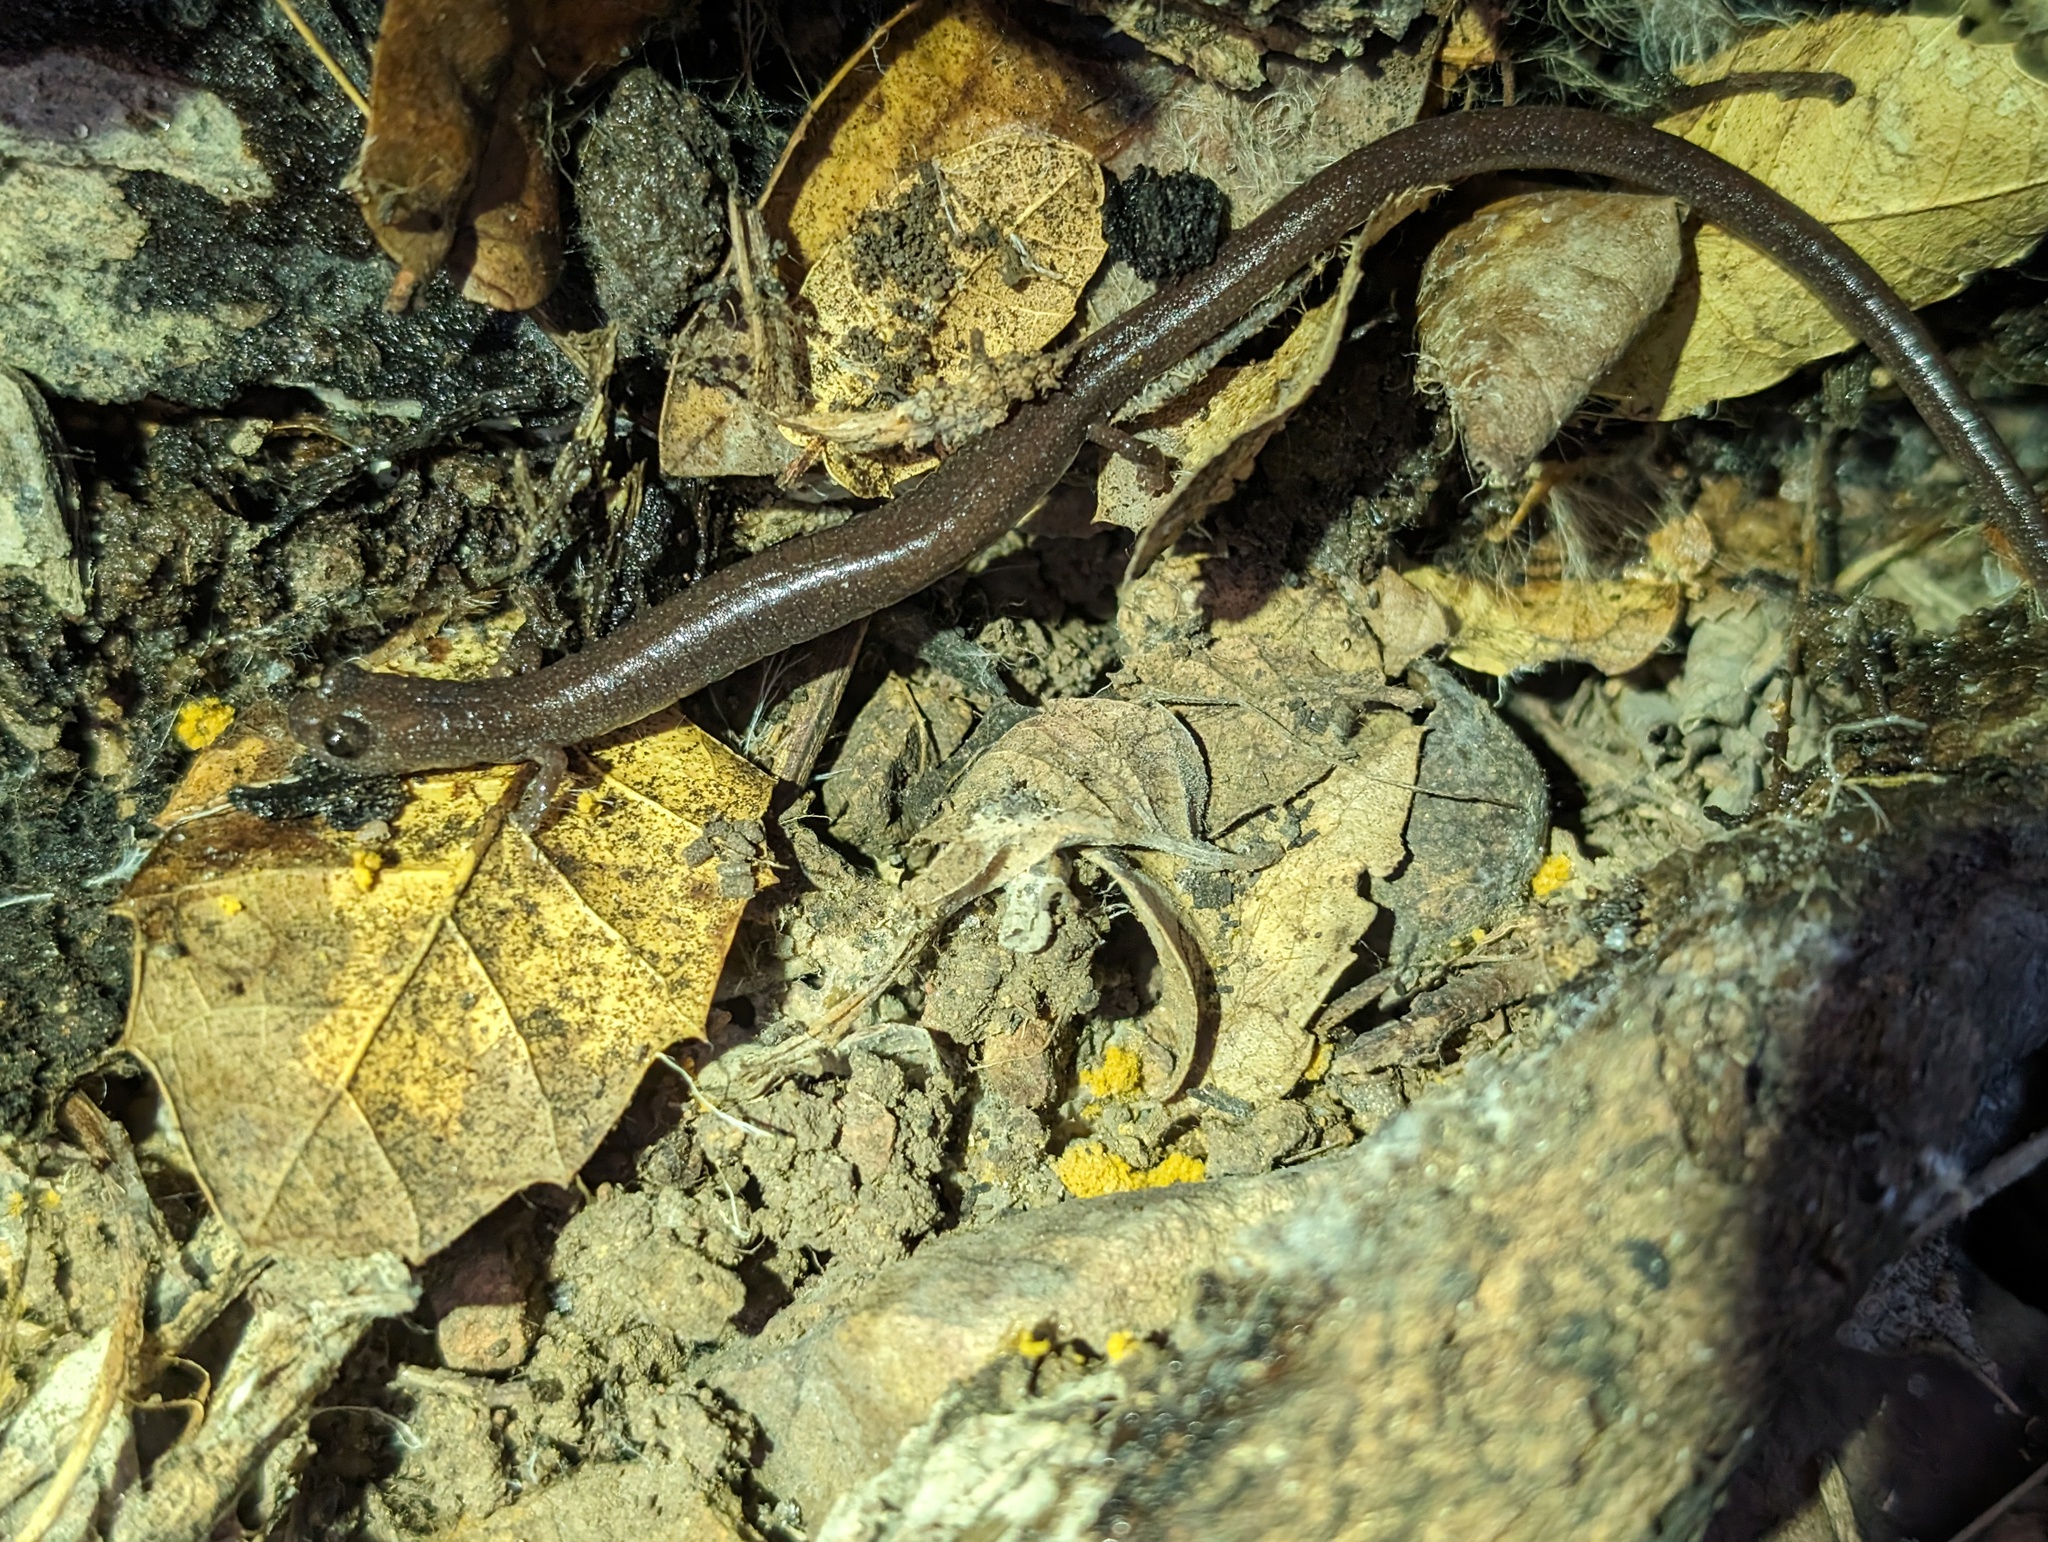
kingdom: Animalia
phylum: Chordata
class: Amphibia
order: Caudata
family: Plethodontidae
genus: Batrachoseps
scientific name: Batrachoseps major
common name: Garden slender salamander
